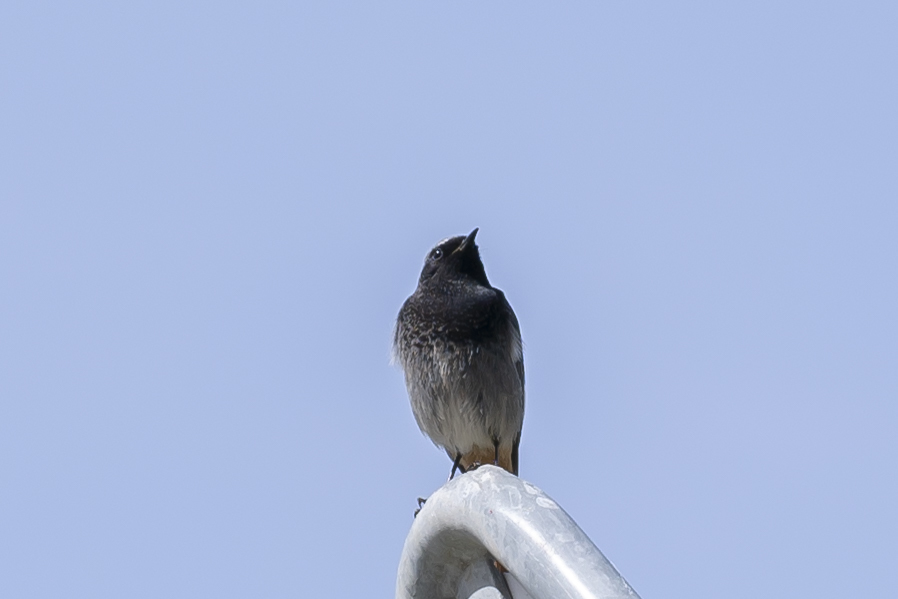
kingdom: Animalia
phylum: Chordata
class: Aves
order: Passeriformes
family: Muscicapidae
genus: Phoenicurus
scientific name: Phoenicurus ochruros
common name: Black redstart
